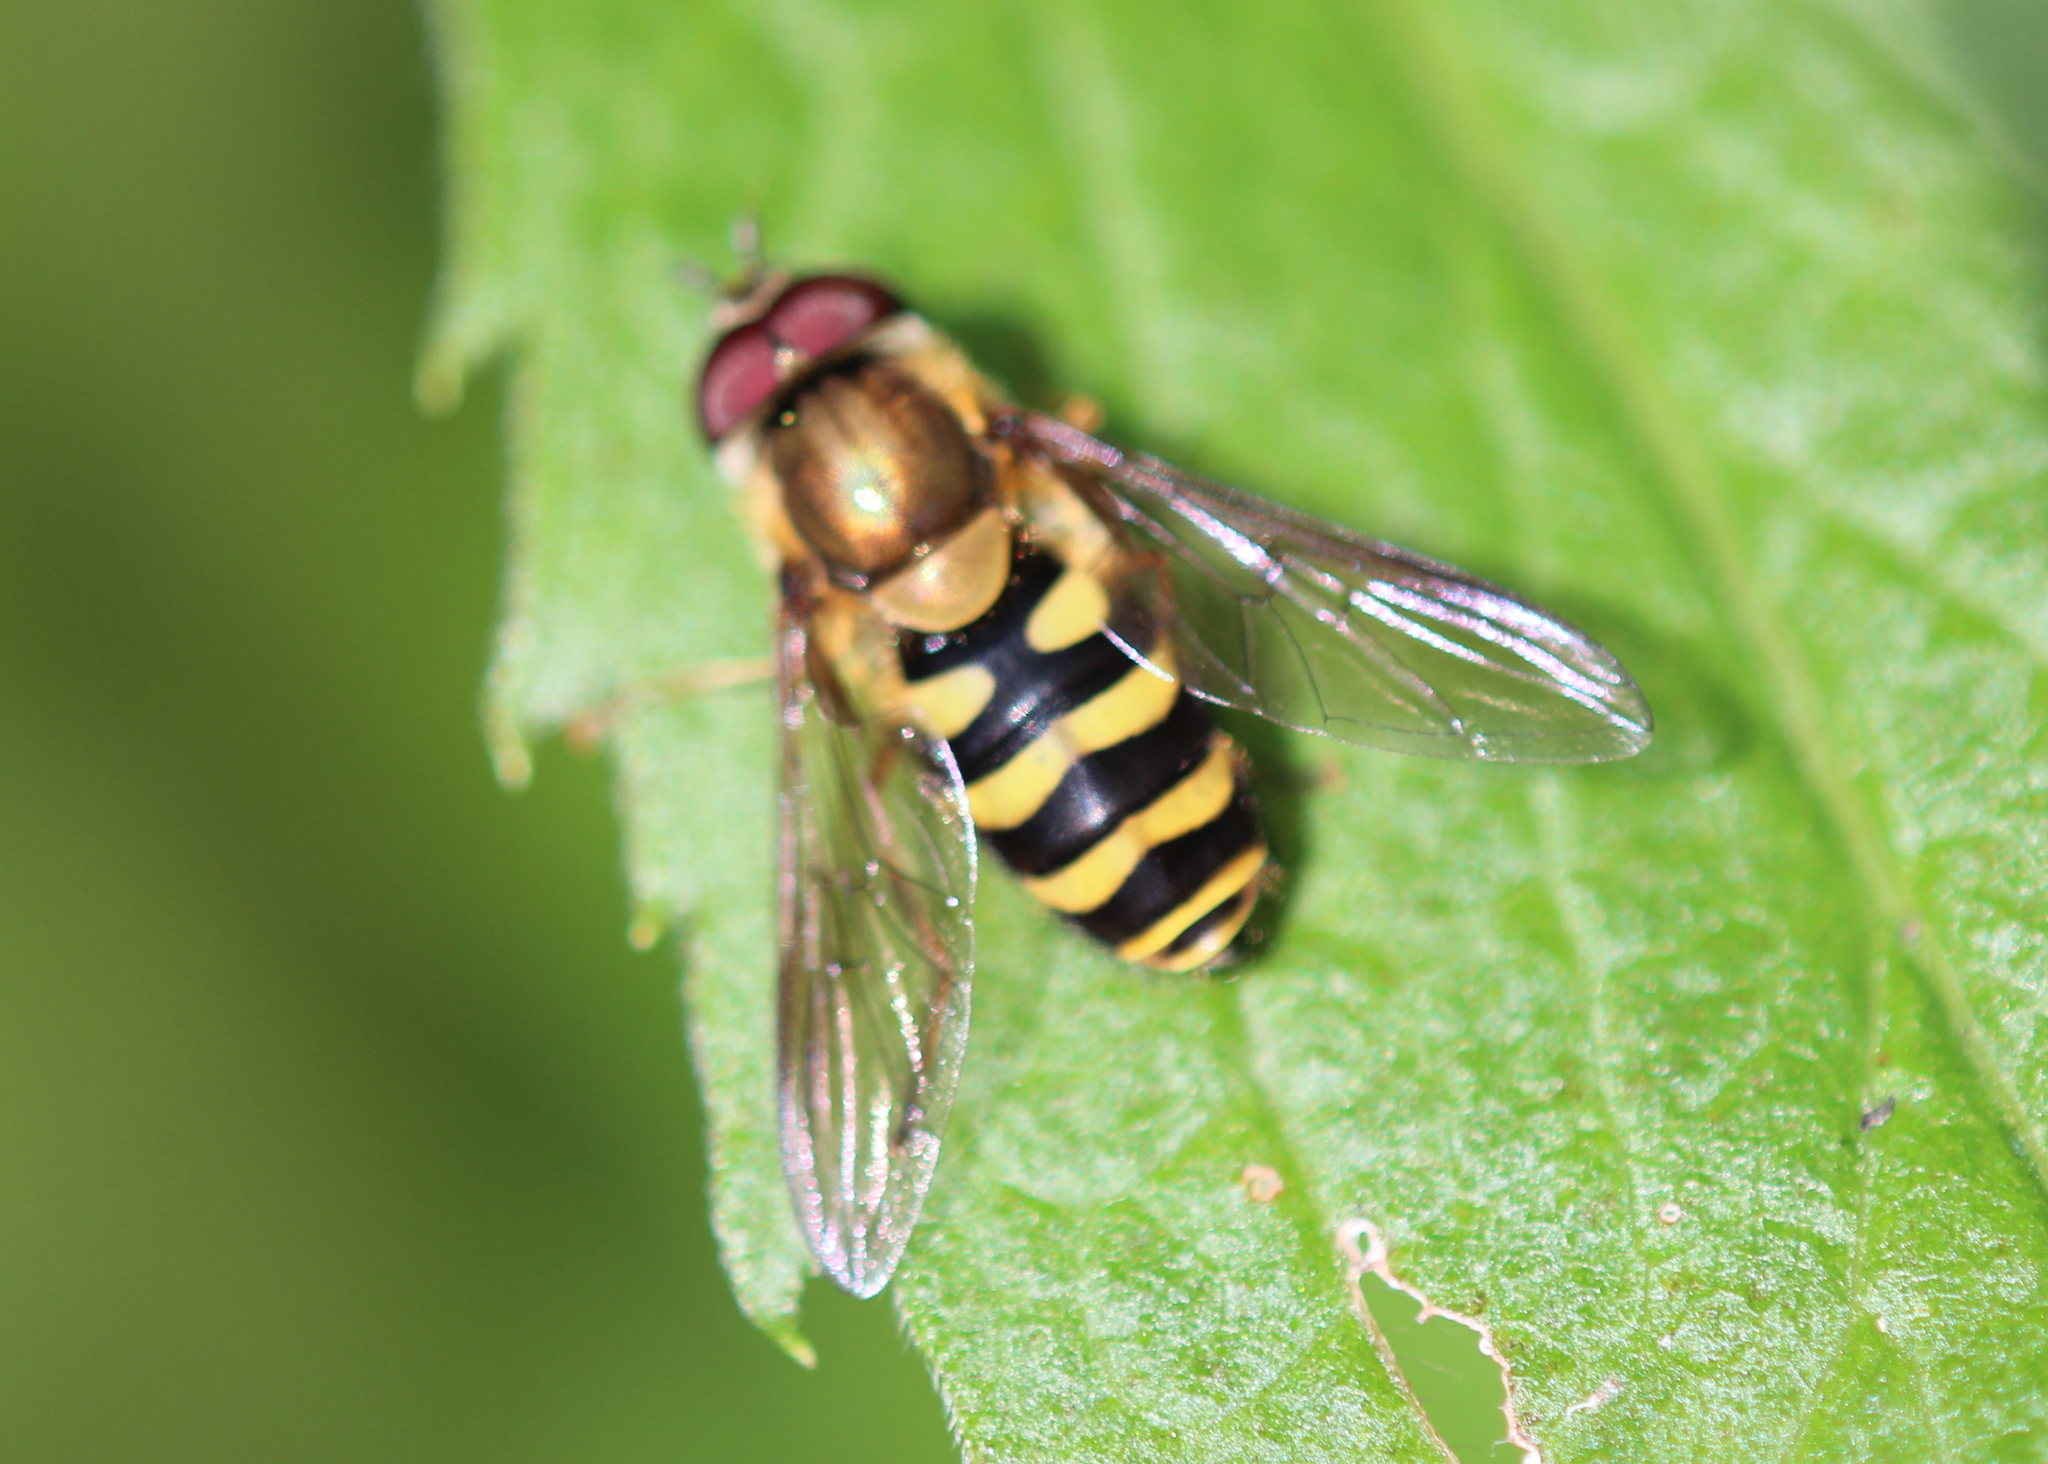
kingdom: Animalia
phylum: Arthropoda
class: Insecta
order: Diptera
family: Syrphidae
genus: Syrphus
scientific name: Syrphus
